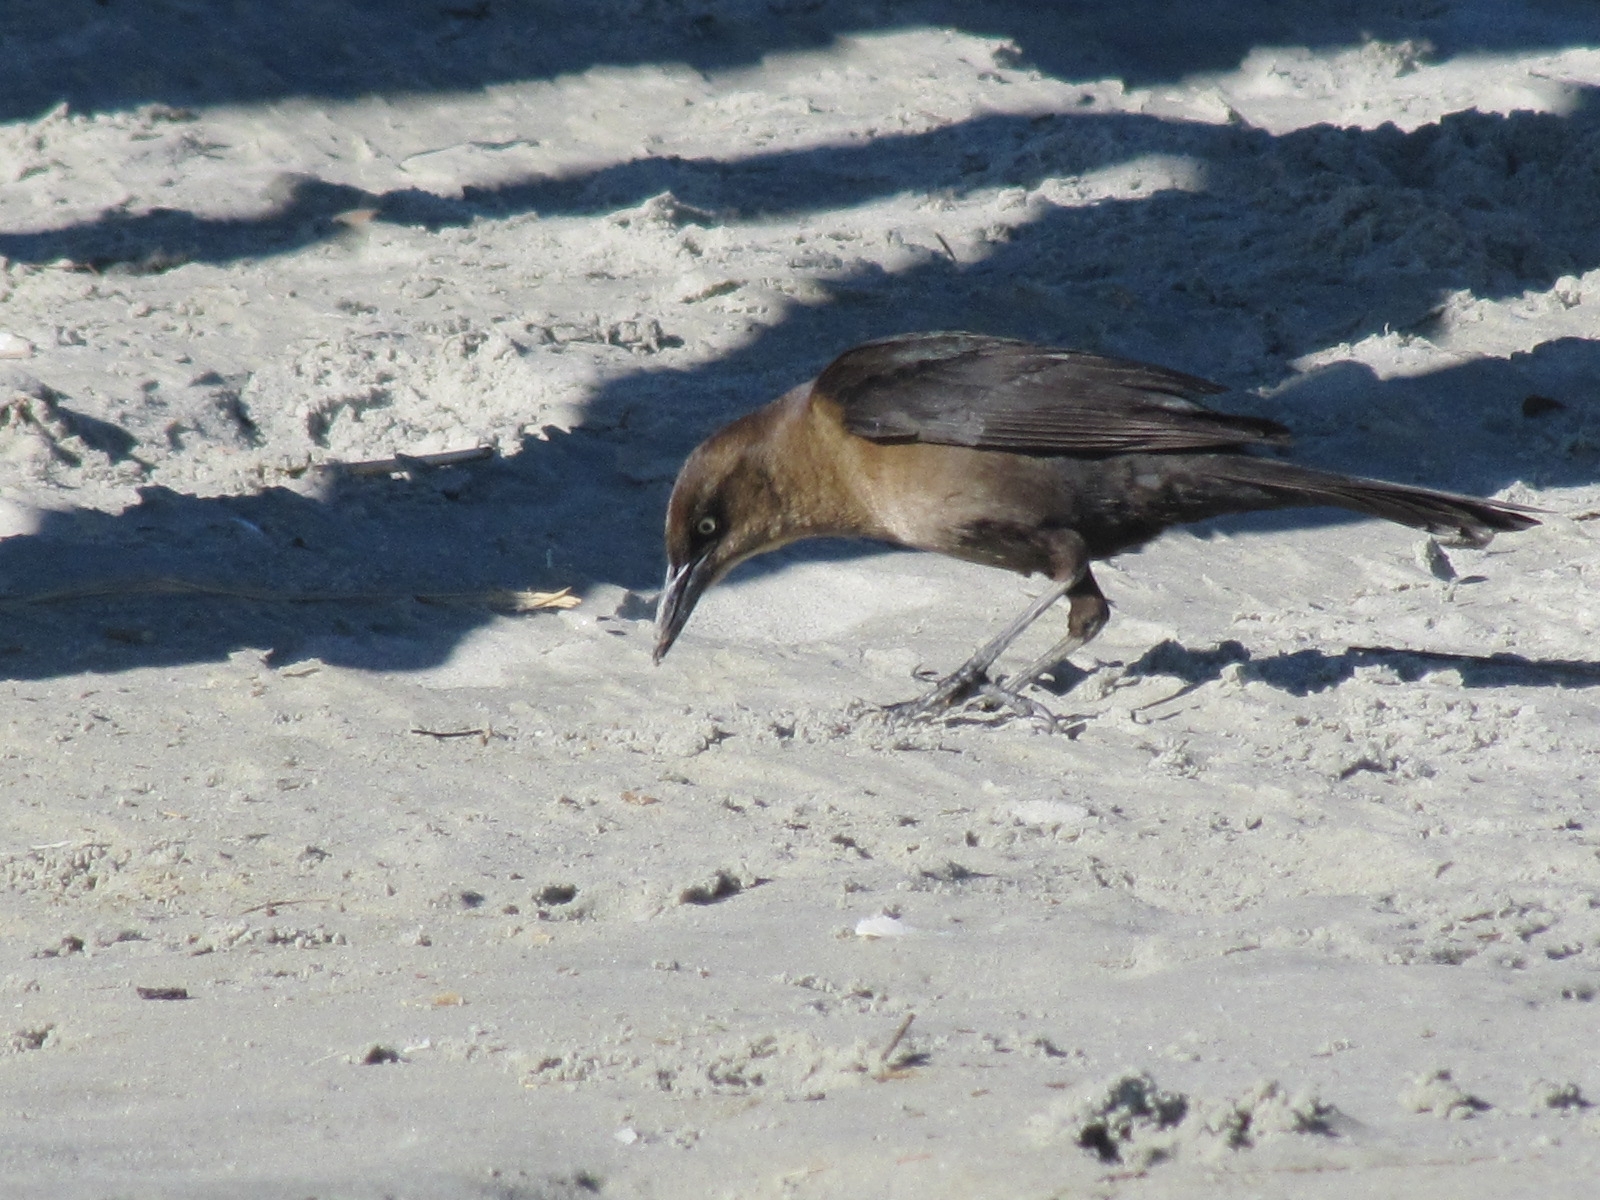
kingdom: Animalia
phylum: Chordata
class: Aves
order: Passeriformes
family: Icteridae
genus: Quiscalus
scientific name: Quiscalus major
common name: Boat-tailed grackle
